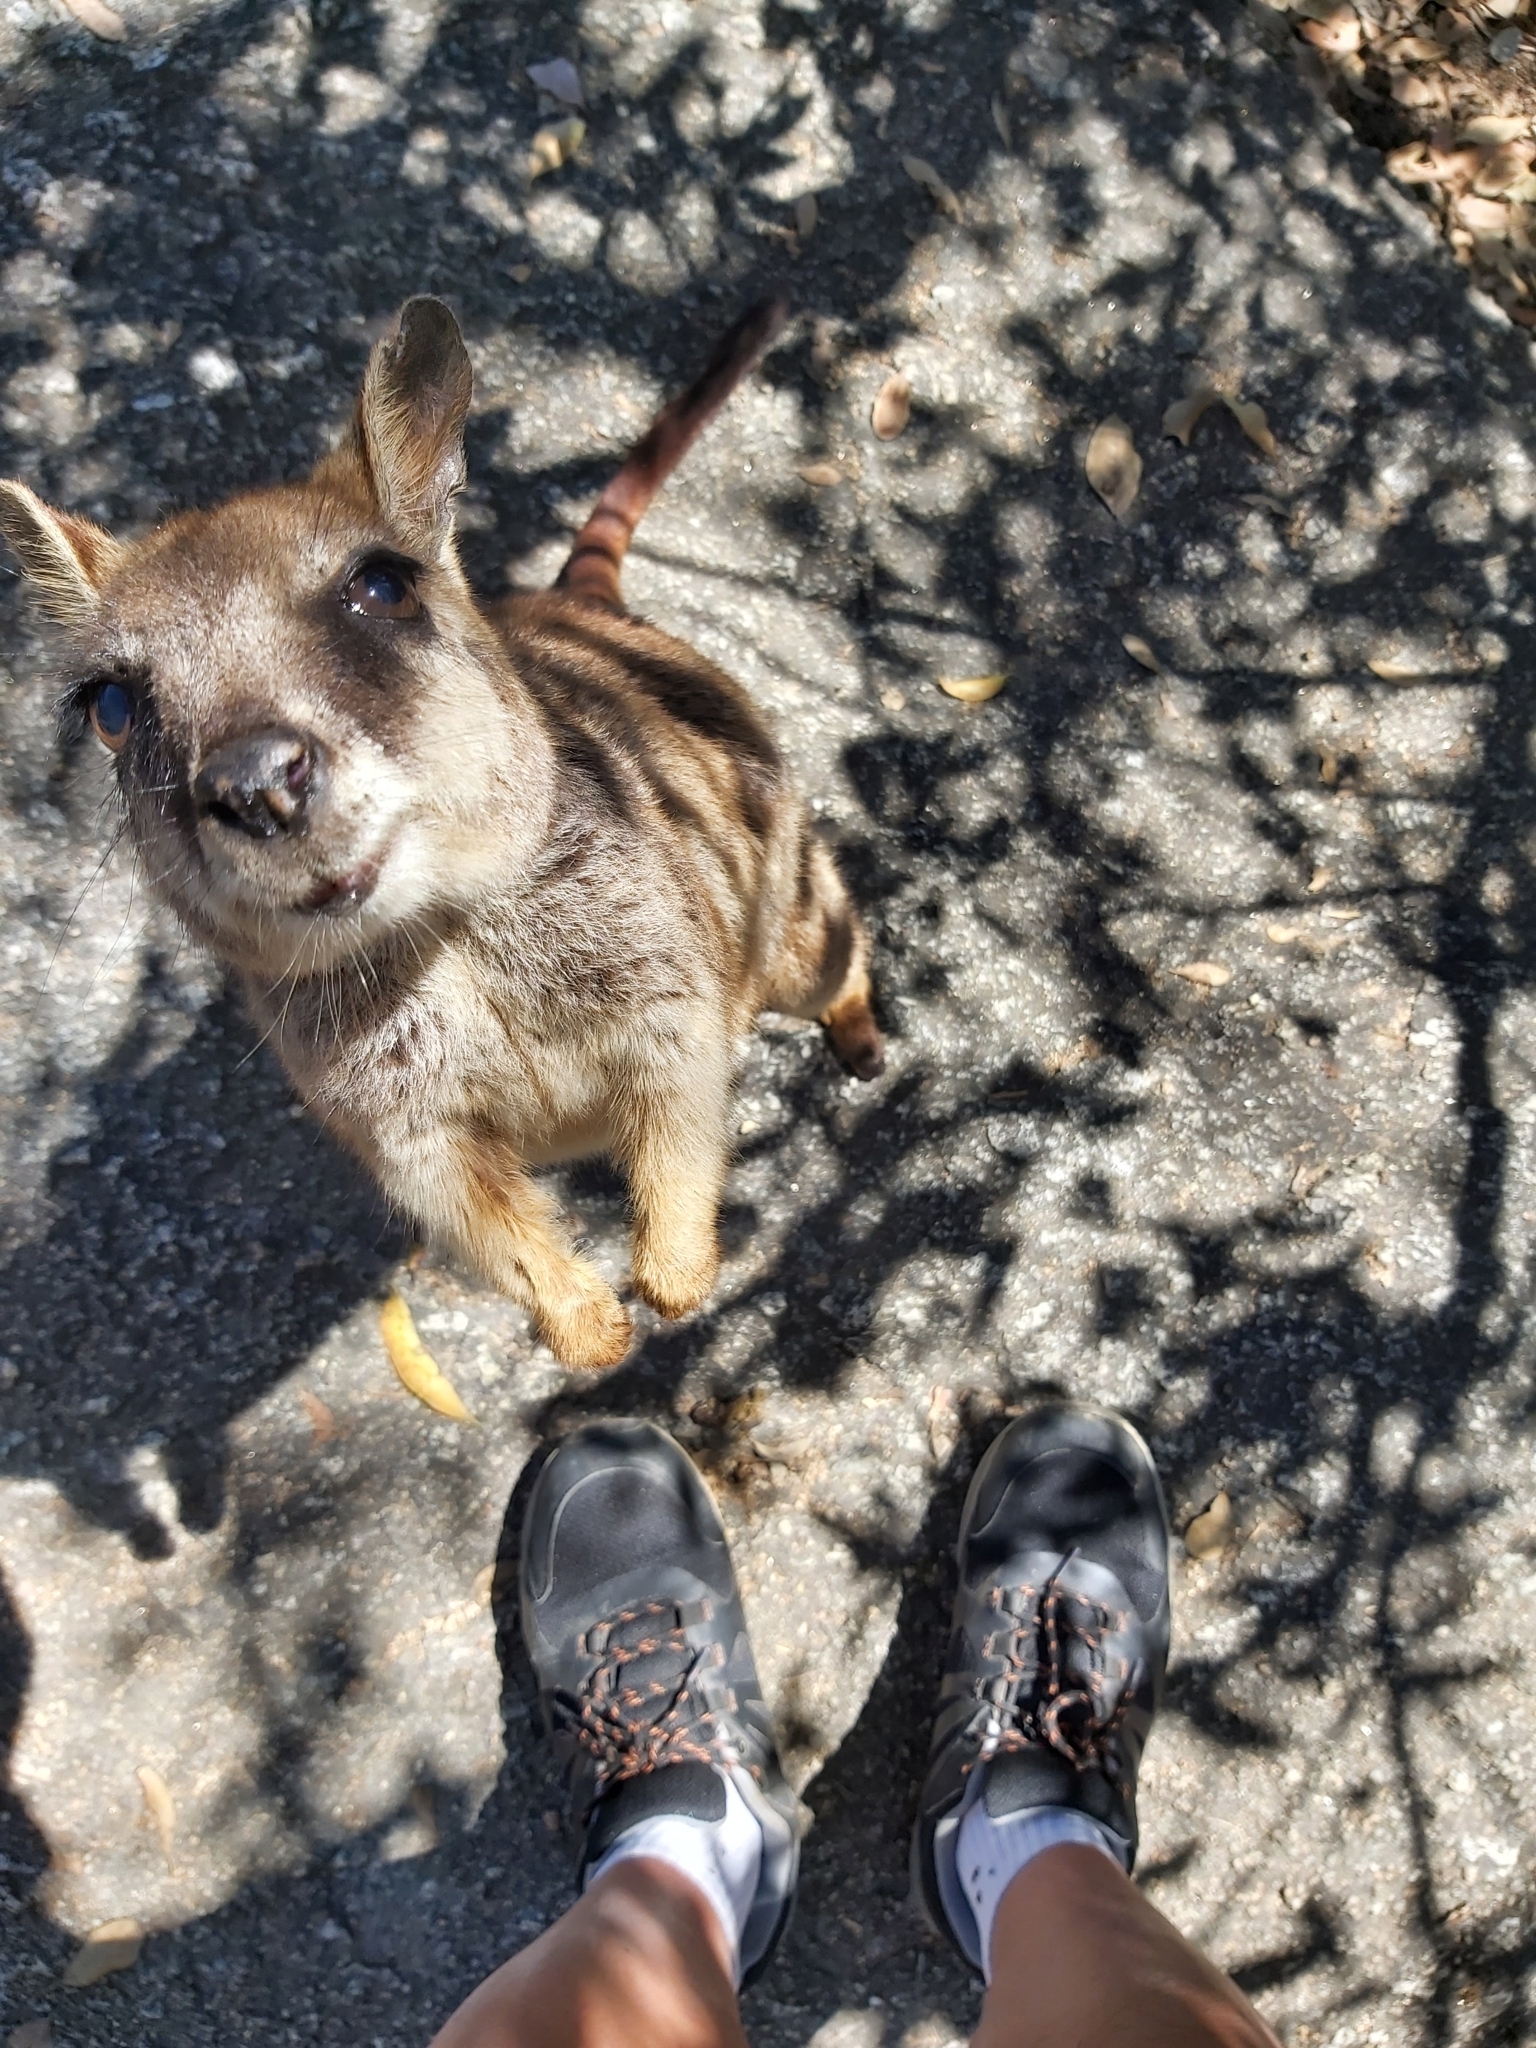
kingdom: Animalia
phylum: Chordata
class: Mammalia
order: Diprotodontia
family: Macropodidae
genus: Petrogale
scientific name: Petrogale mareeba
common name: Mareeba rock-wallaby
